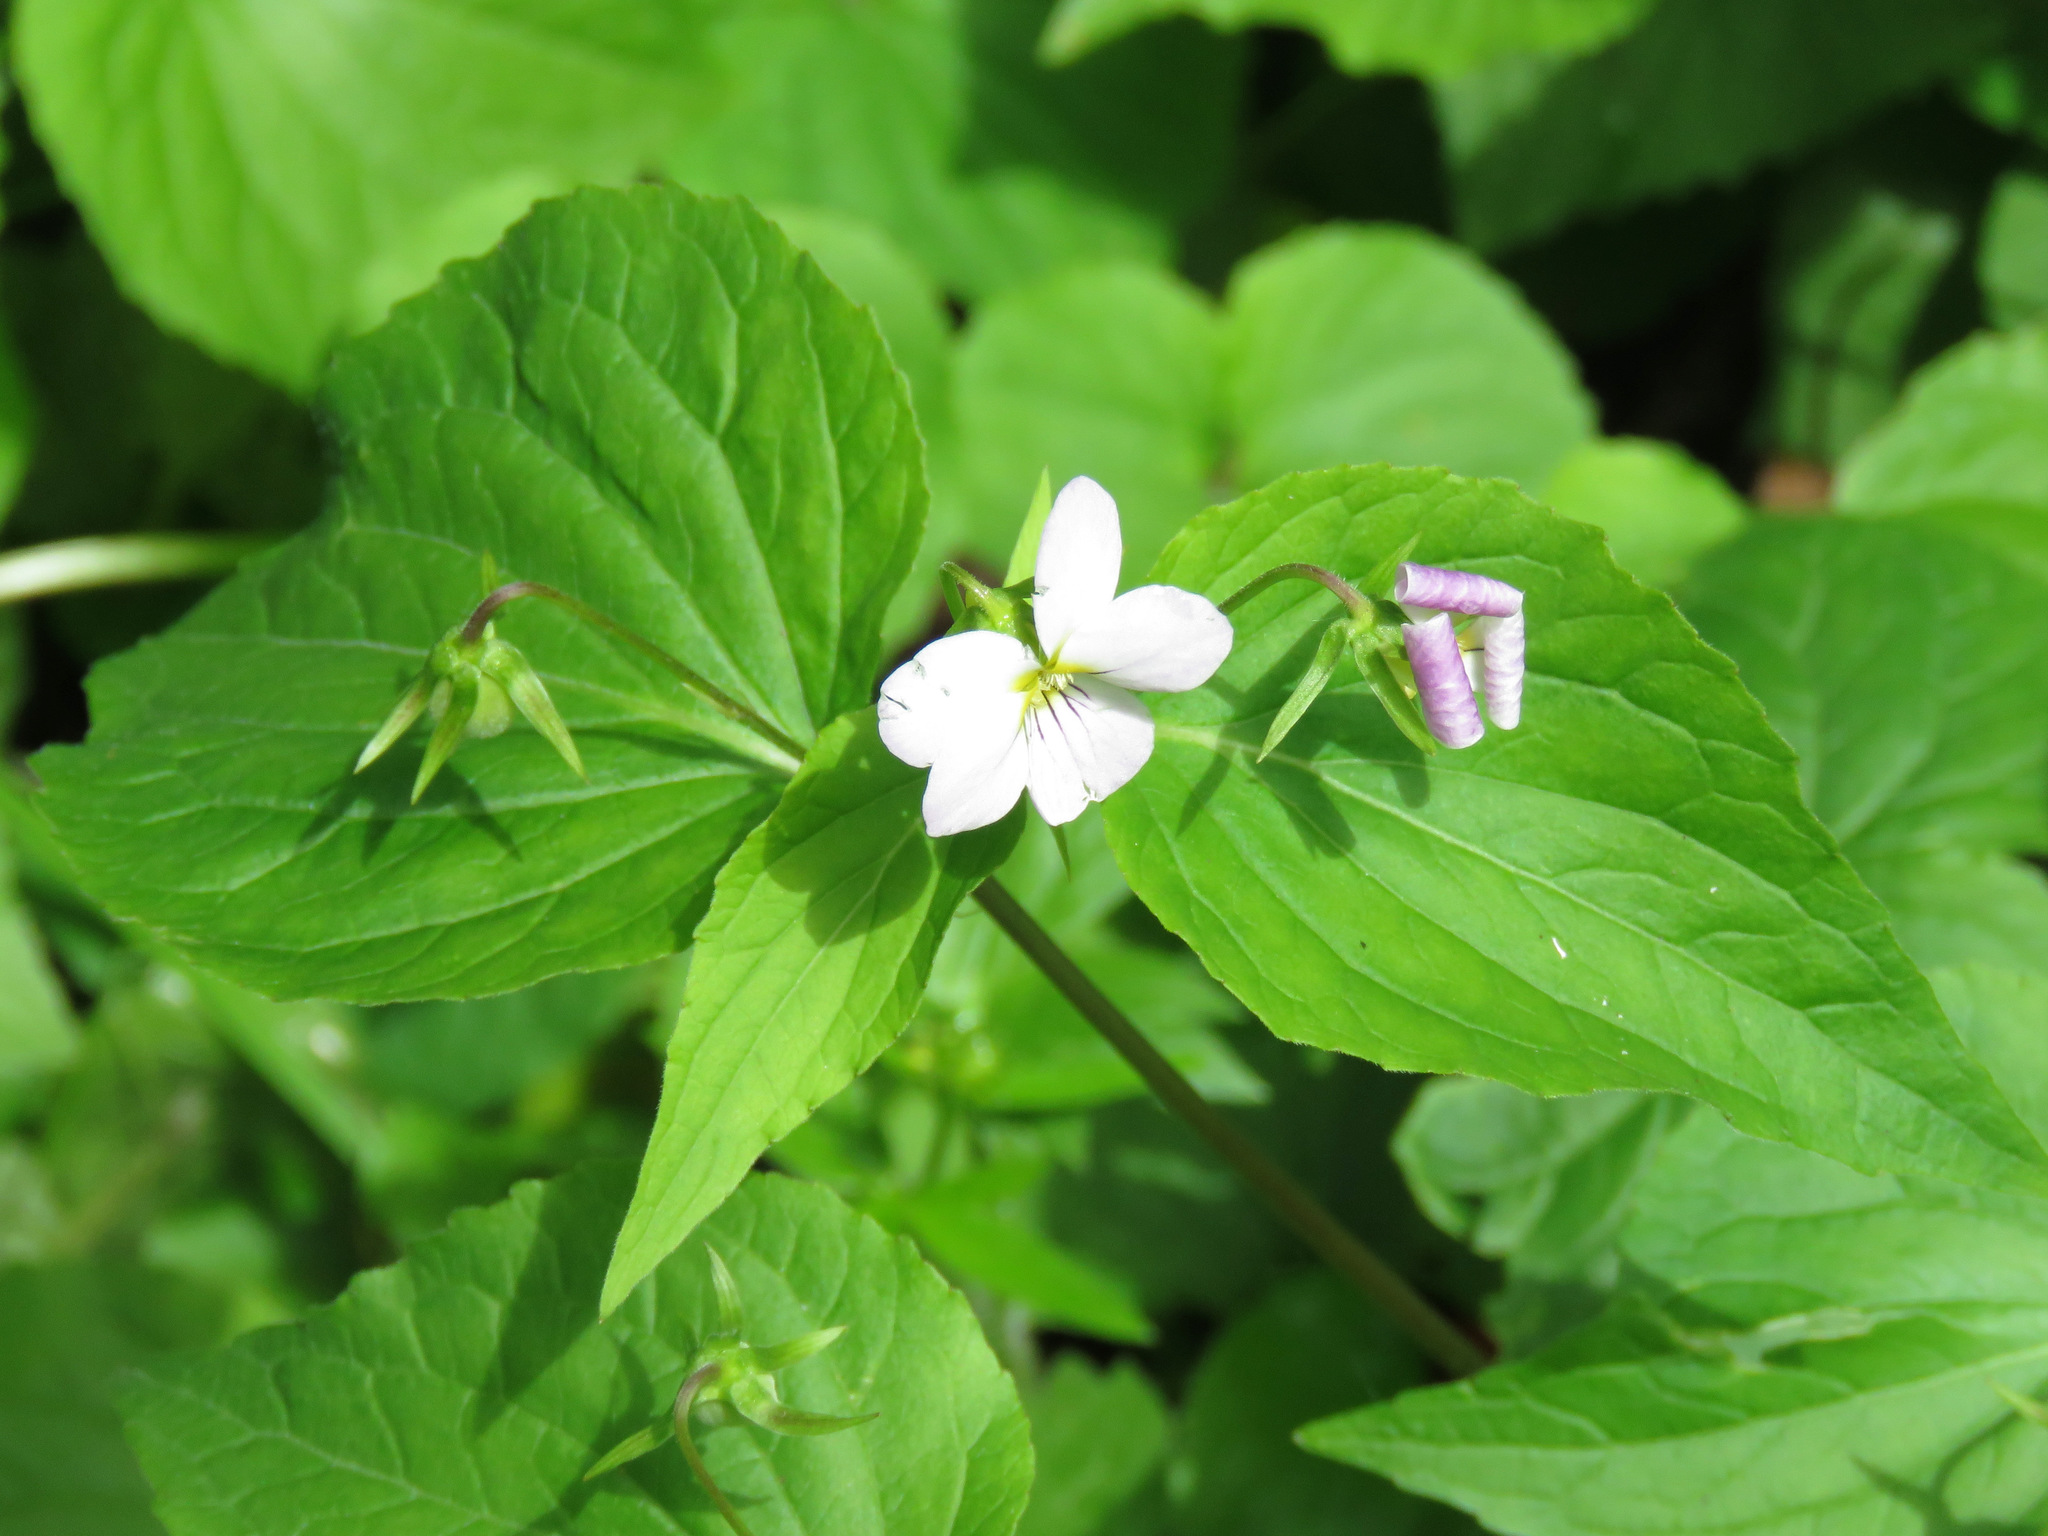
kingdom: Plantae
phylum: Tracheophyta
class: Magnoliopsida
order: Malpighiales
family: Violaceae
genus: Viola
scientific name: Viola canadensis
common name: Canada violet
